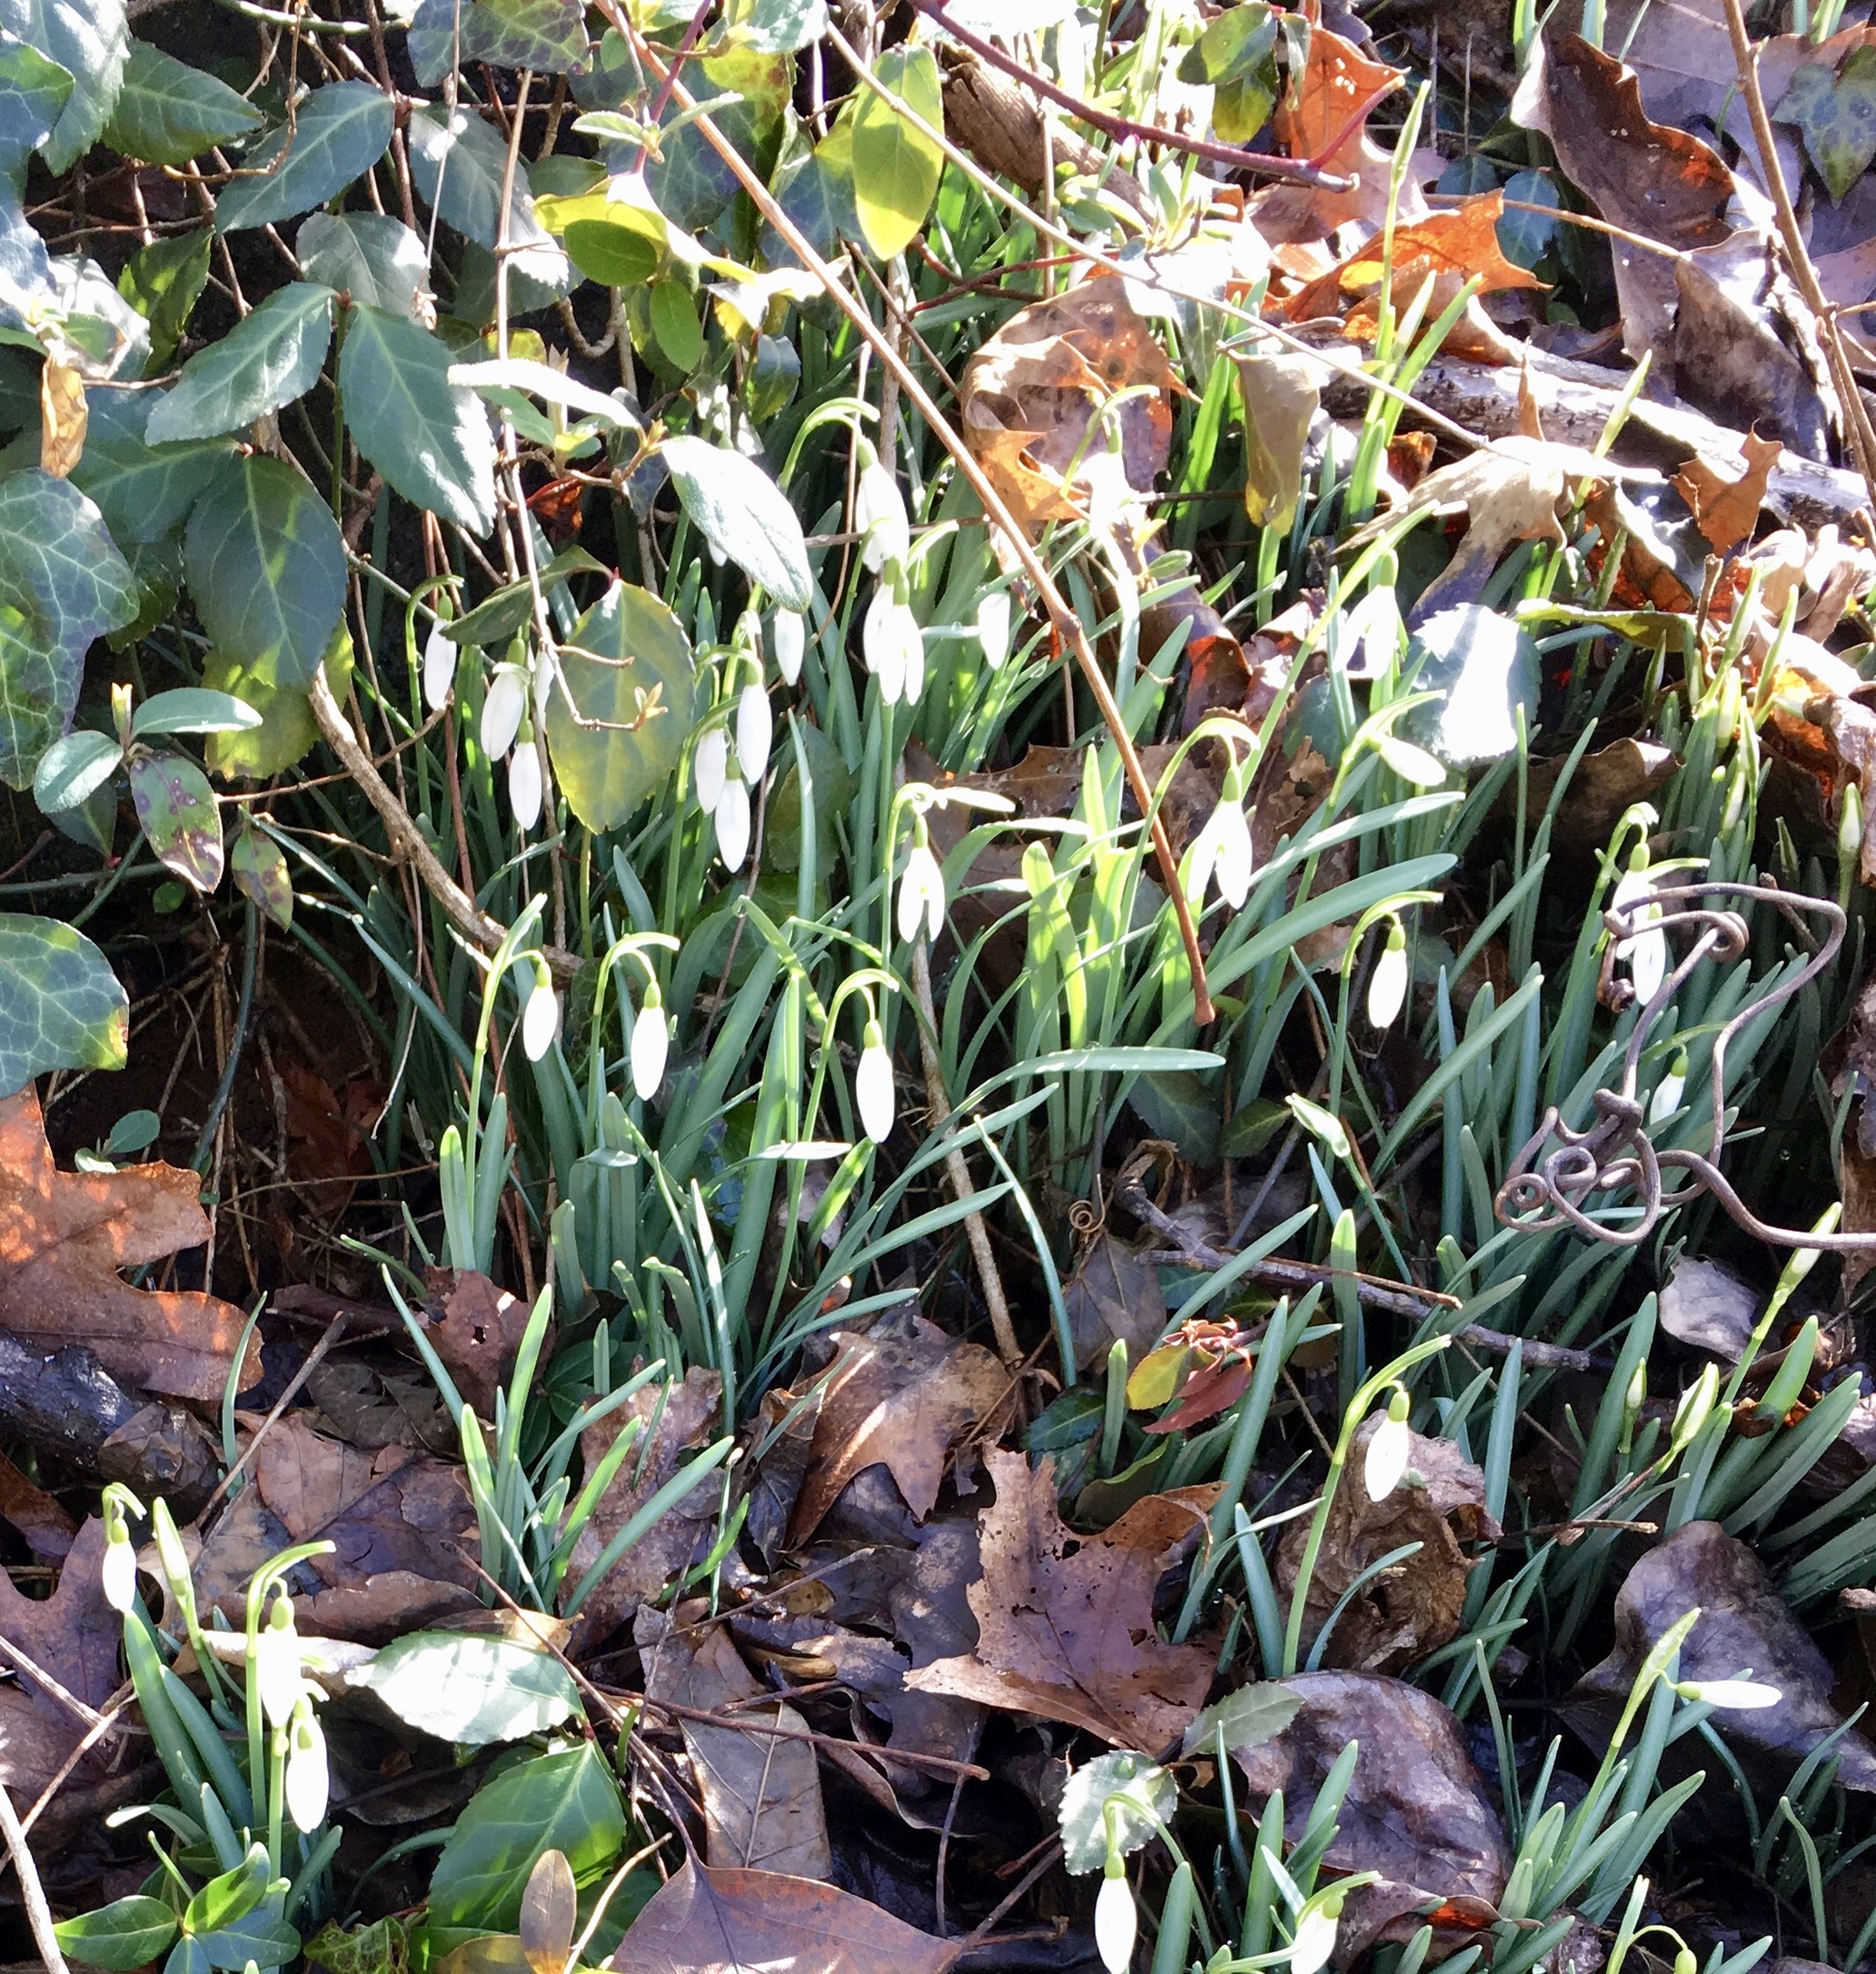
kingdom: Plantae
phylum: Tracheophyta
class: Liliopsida
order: Asparagales
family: Amaryllidaceae
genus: Galanthus
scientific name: Galanthus nivalis
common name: Snowdrop
